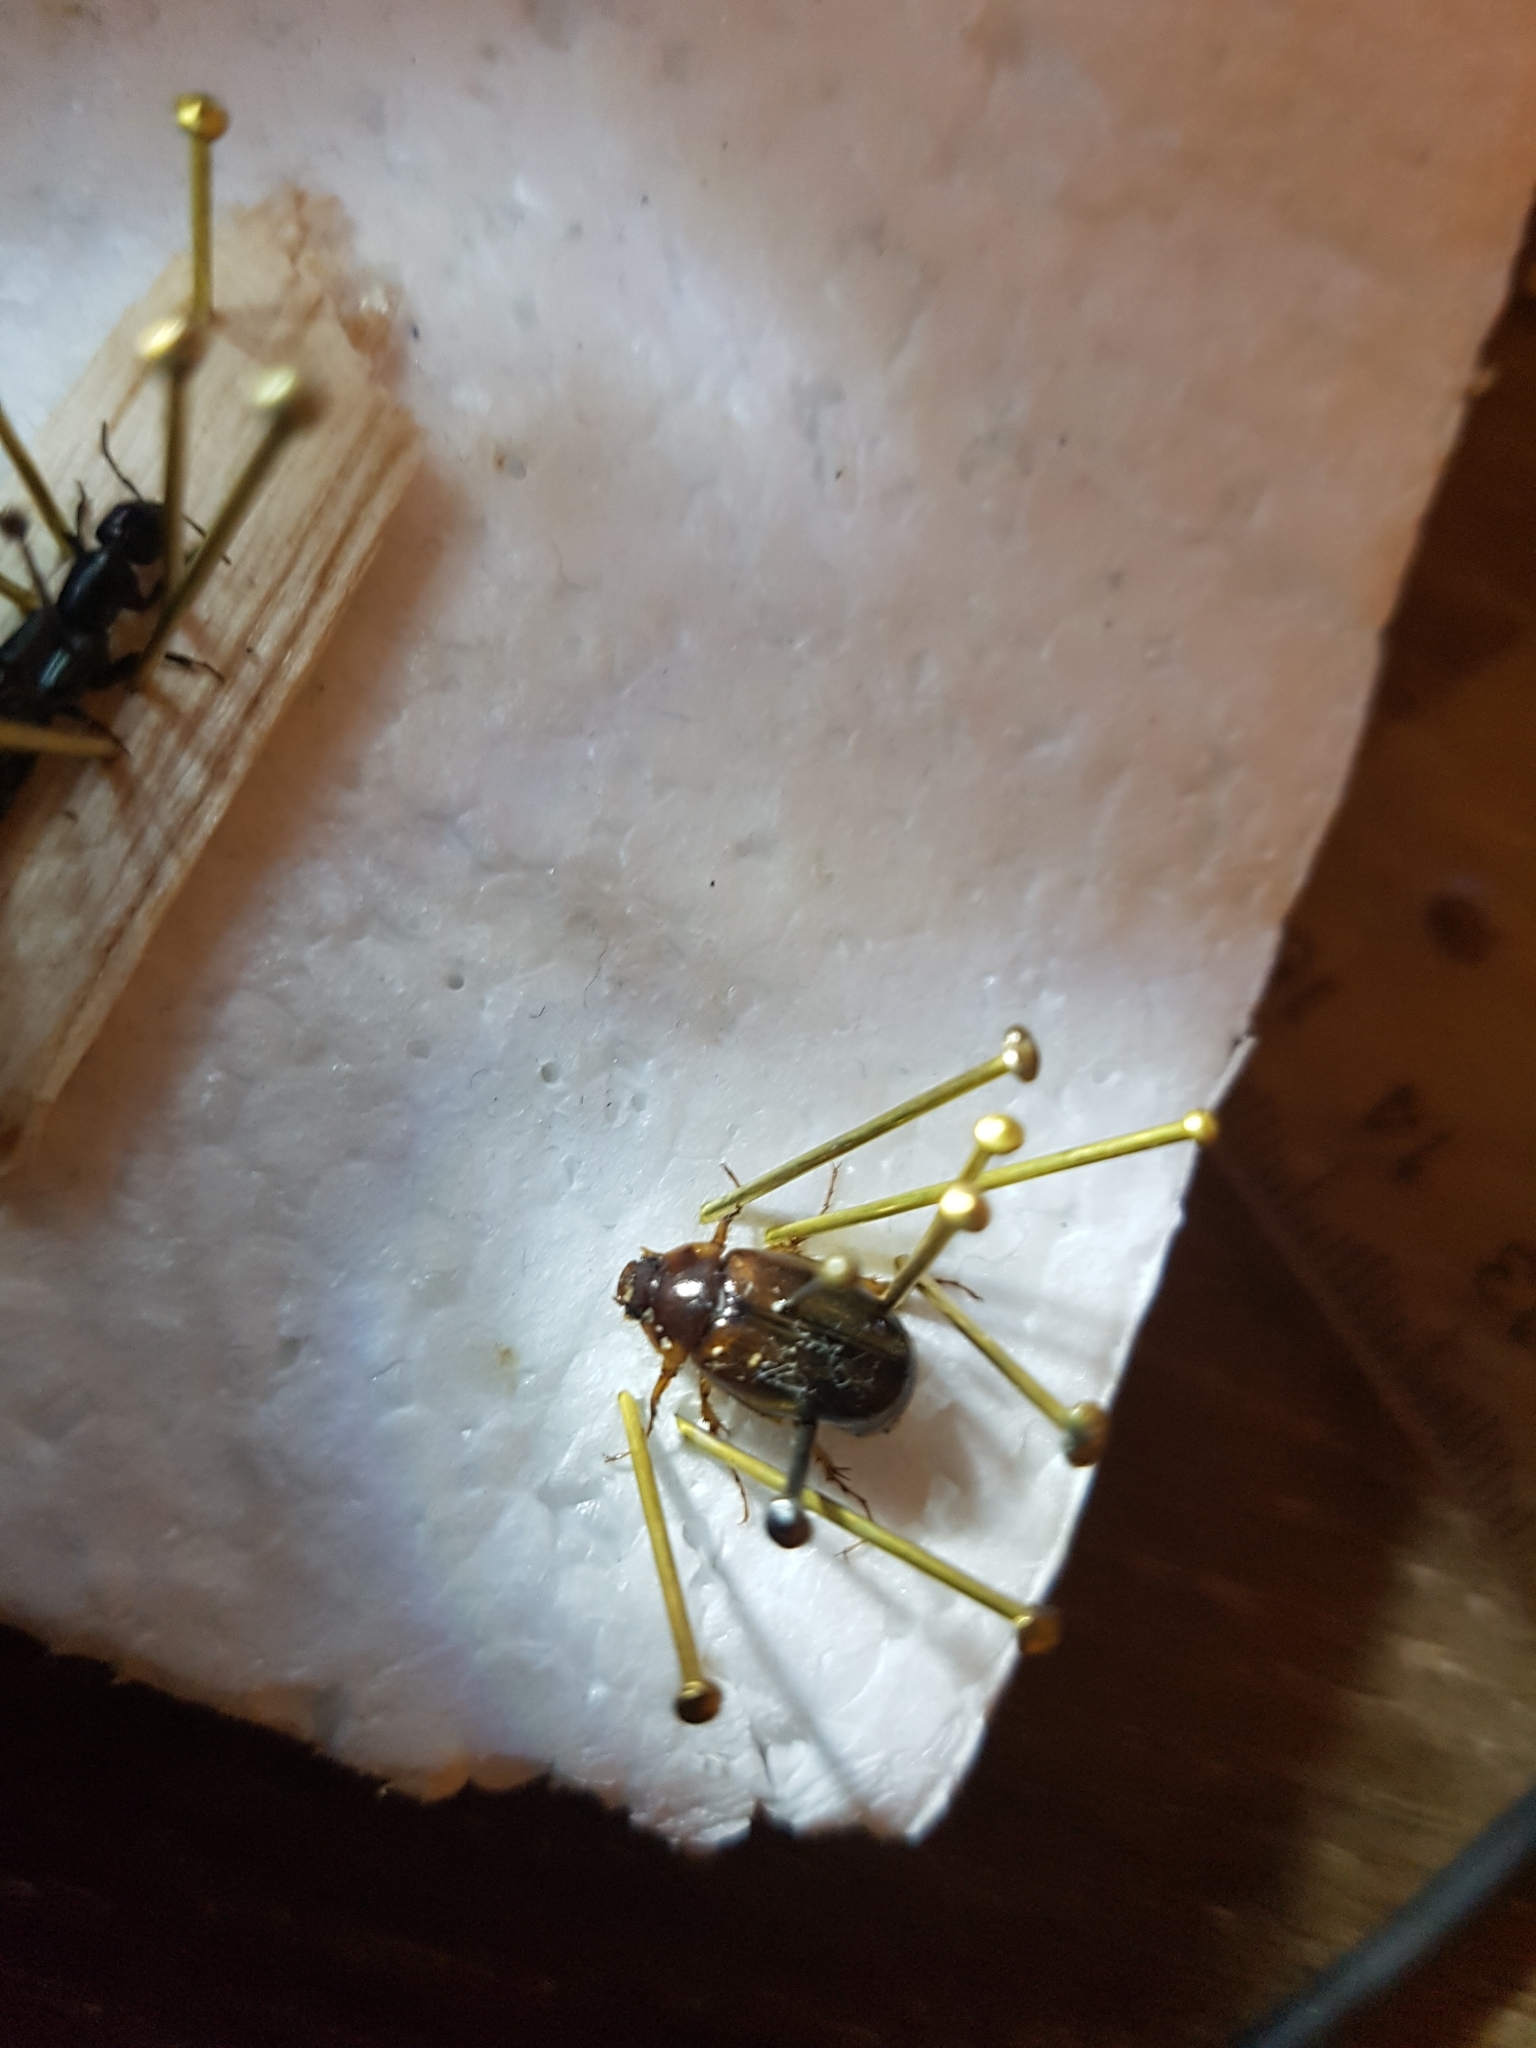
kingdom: Animalia
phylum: Arthropoda
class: Insecta
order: Coleoptera
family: Scarabaeidae
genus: Costelytra
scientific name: Costelytra zealandica
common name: New zealand grass grub
